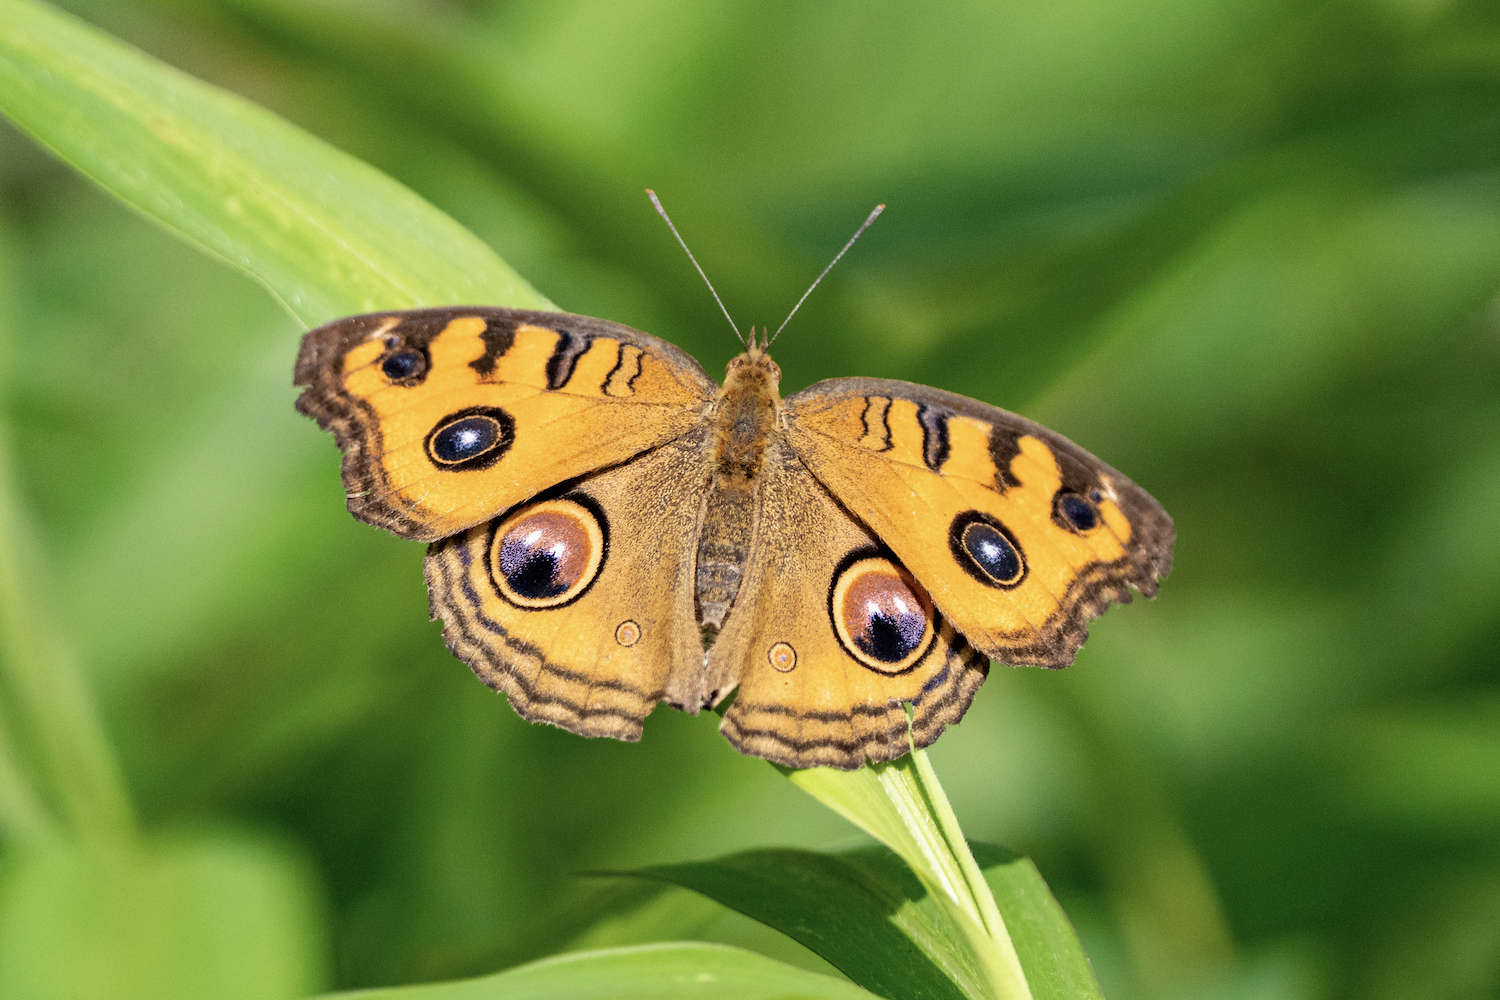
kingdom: Animalia
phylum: Arthropoda
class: Insecta
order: Lepidoptera
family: Nymphalidae
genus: Junonia
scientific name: Junonia almana
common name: Peacock pansy
